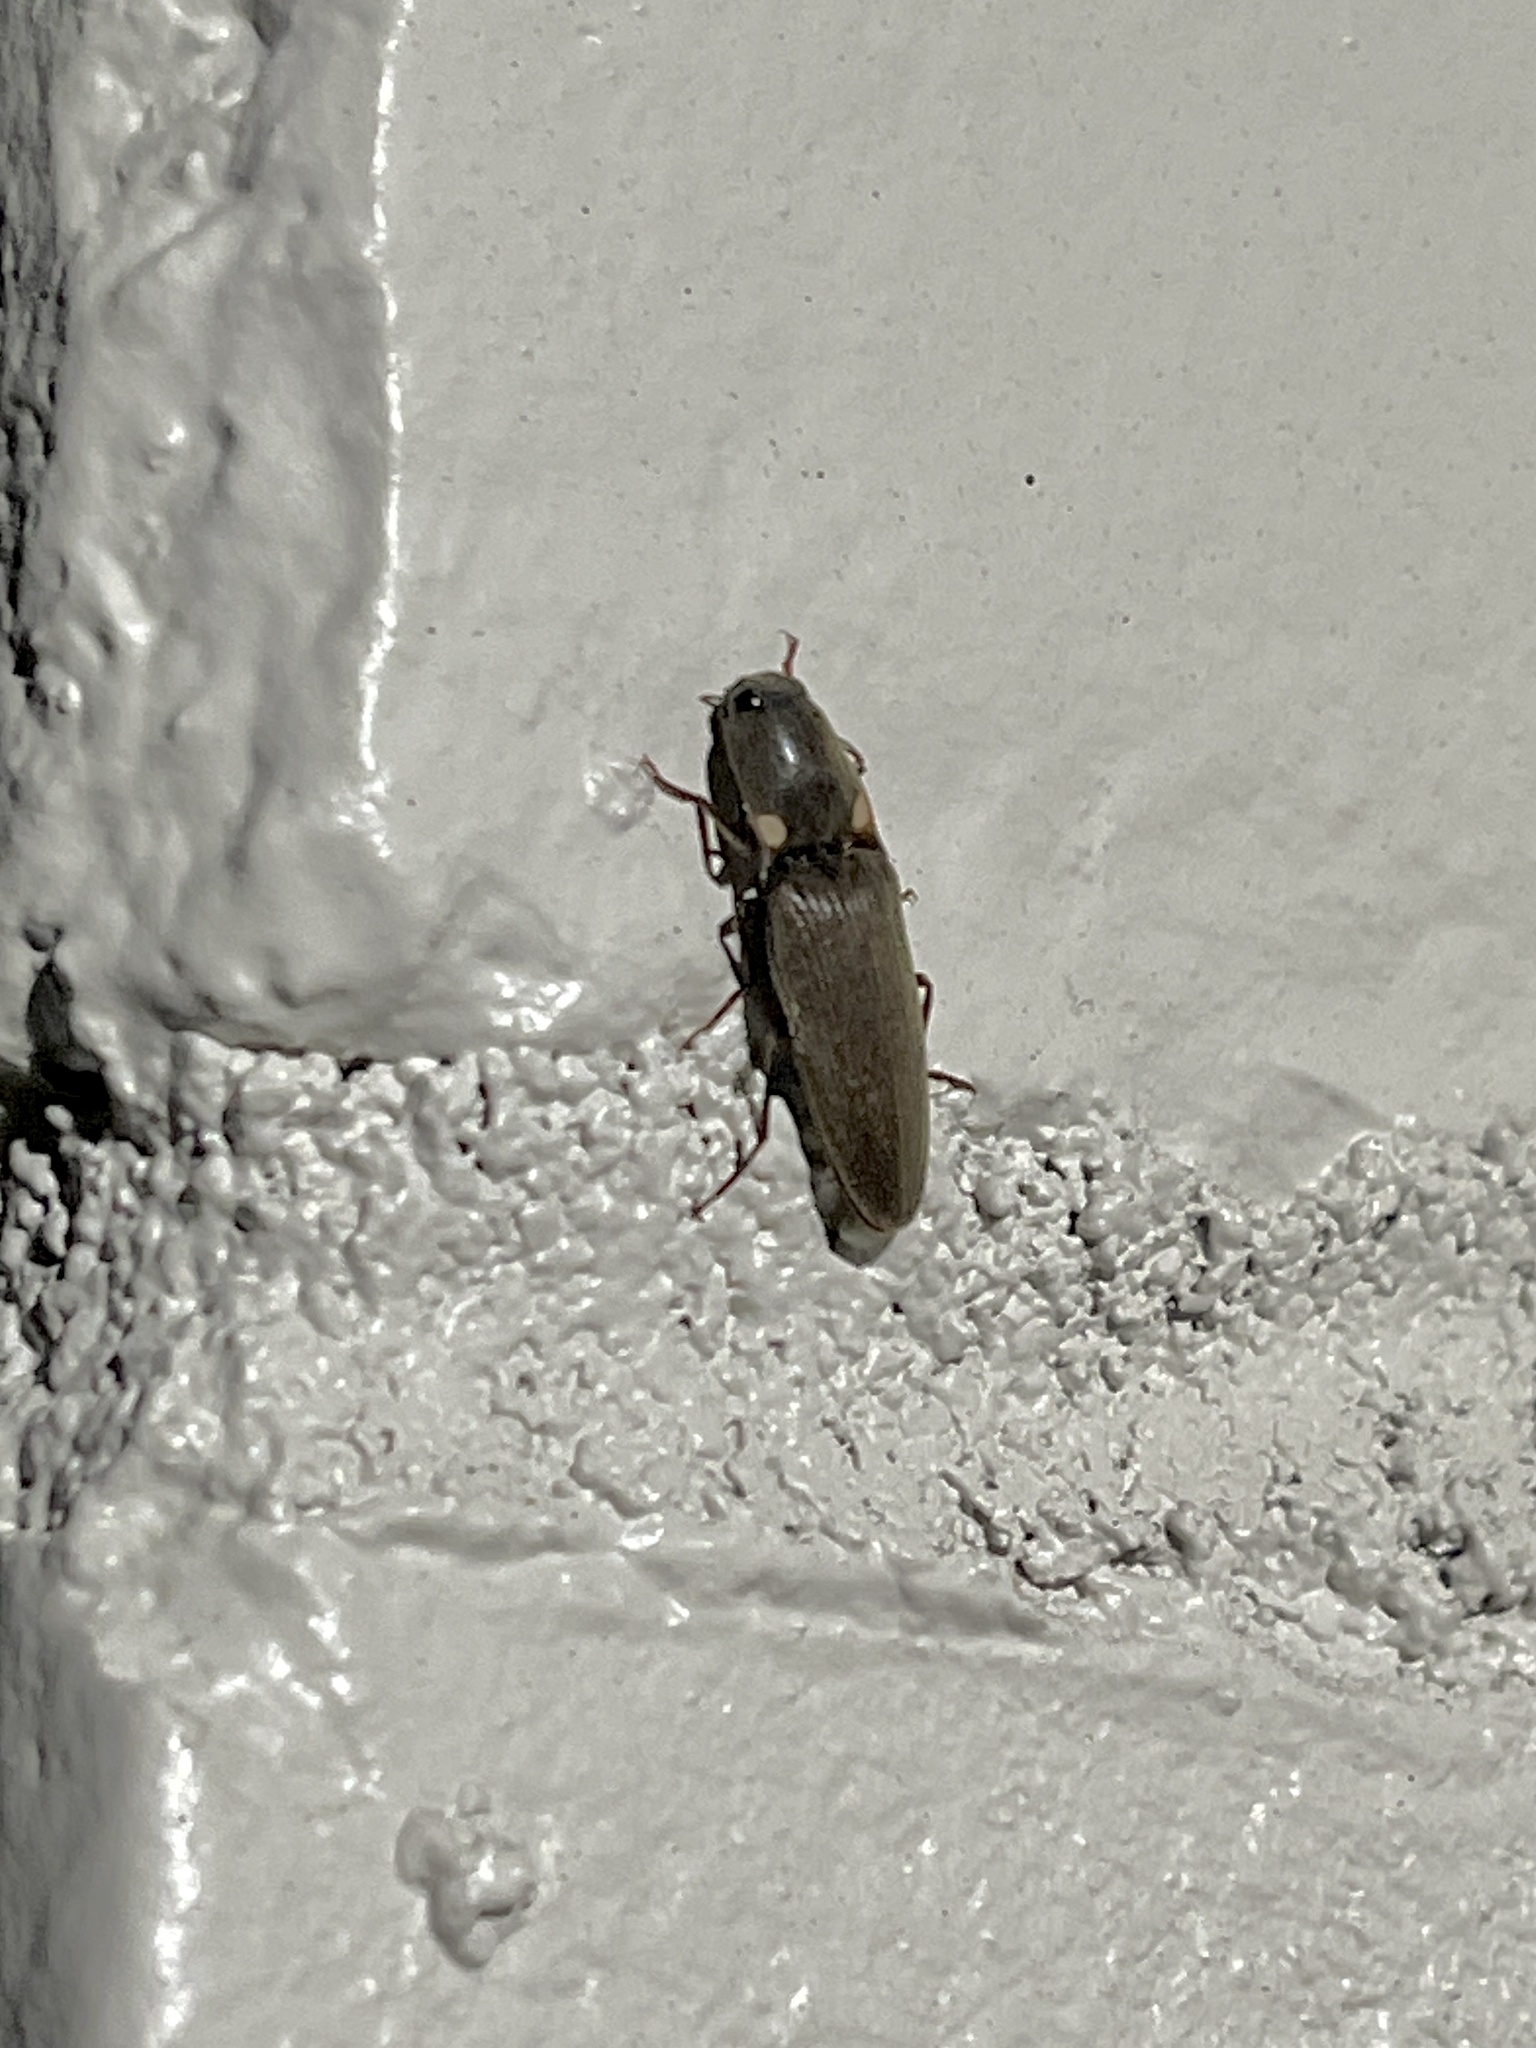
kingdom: Animalia
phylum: Arthropoda
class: Insecta
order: Coleoptera
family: Elateridae
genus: Deilelater
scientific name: Deilelater
